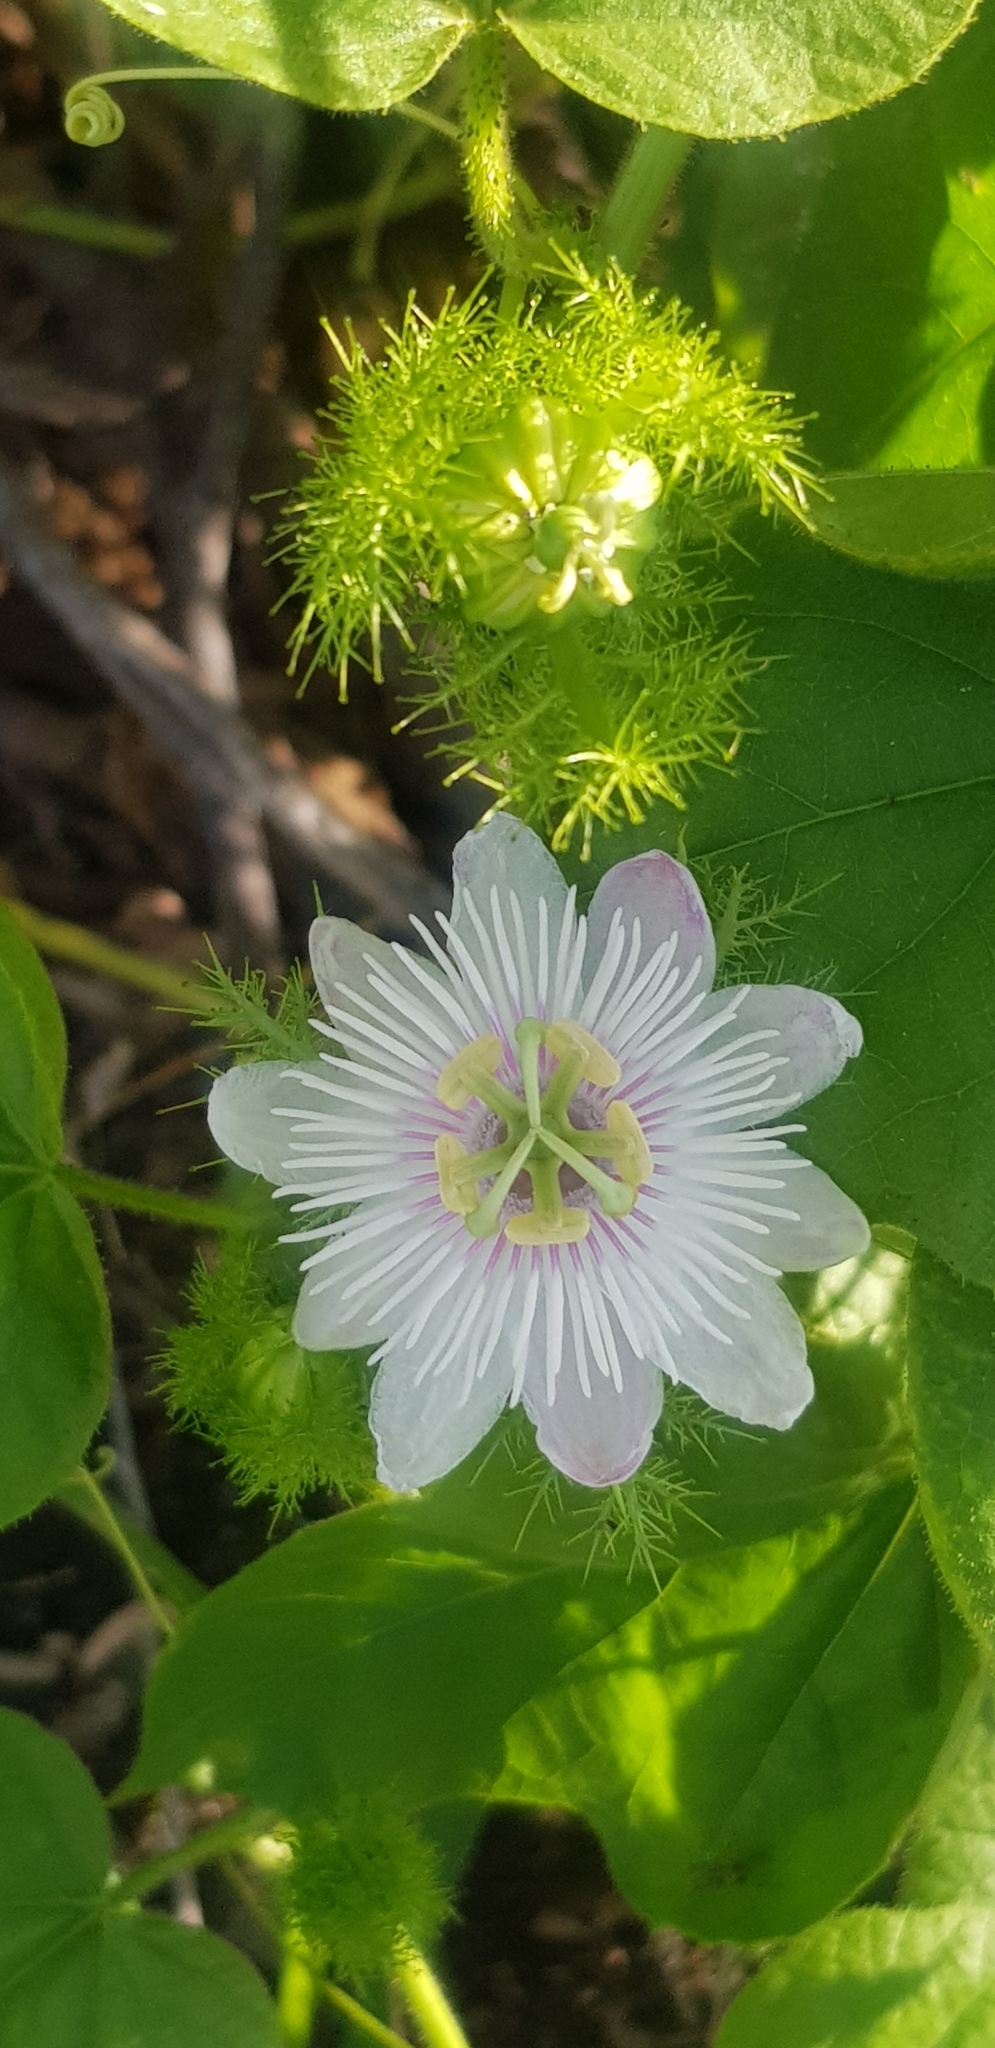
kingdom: Plantae
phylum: Tracheophyta
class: Magnoliopsida
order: Malpighiales
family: Passifloraceae
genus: Passiflora
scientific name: Passiflora foetida
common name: Fetid passionflower
